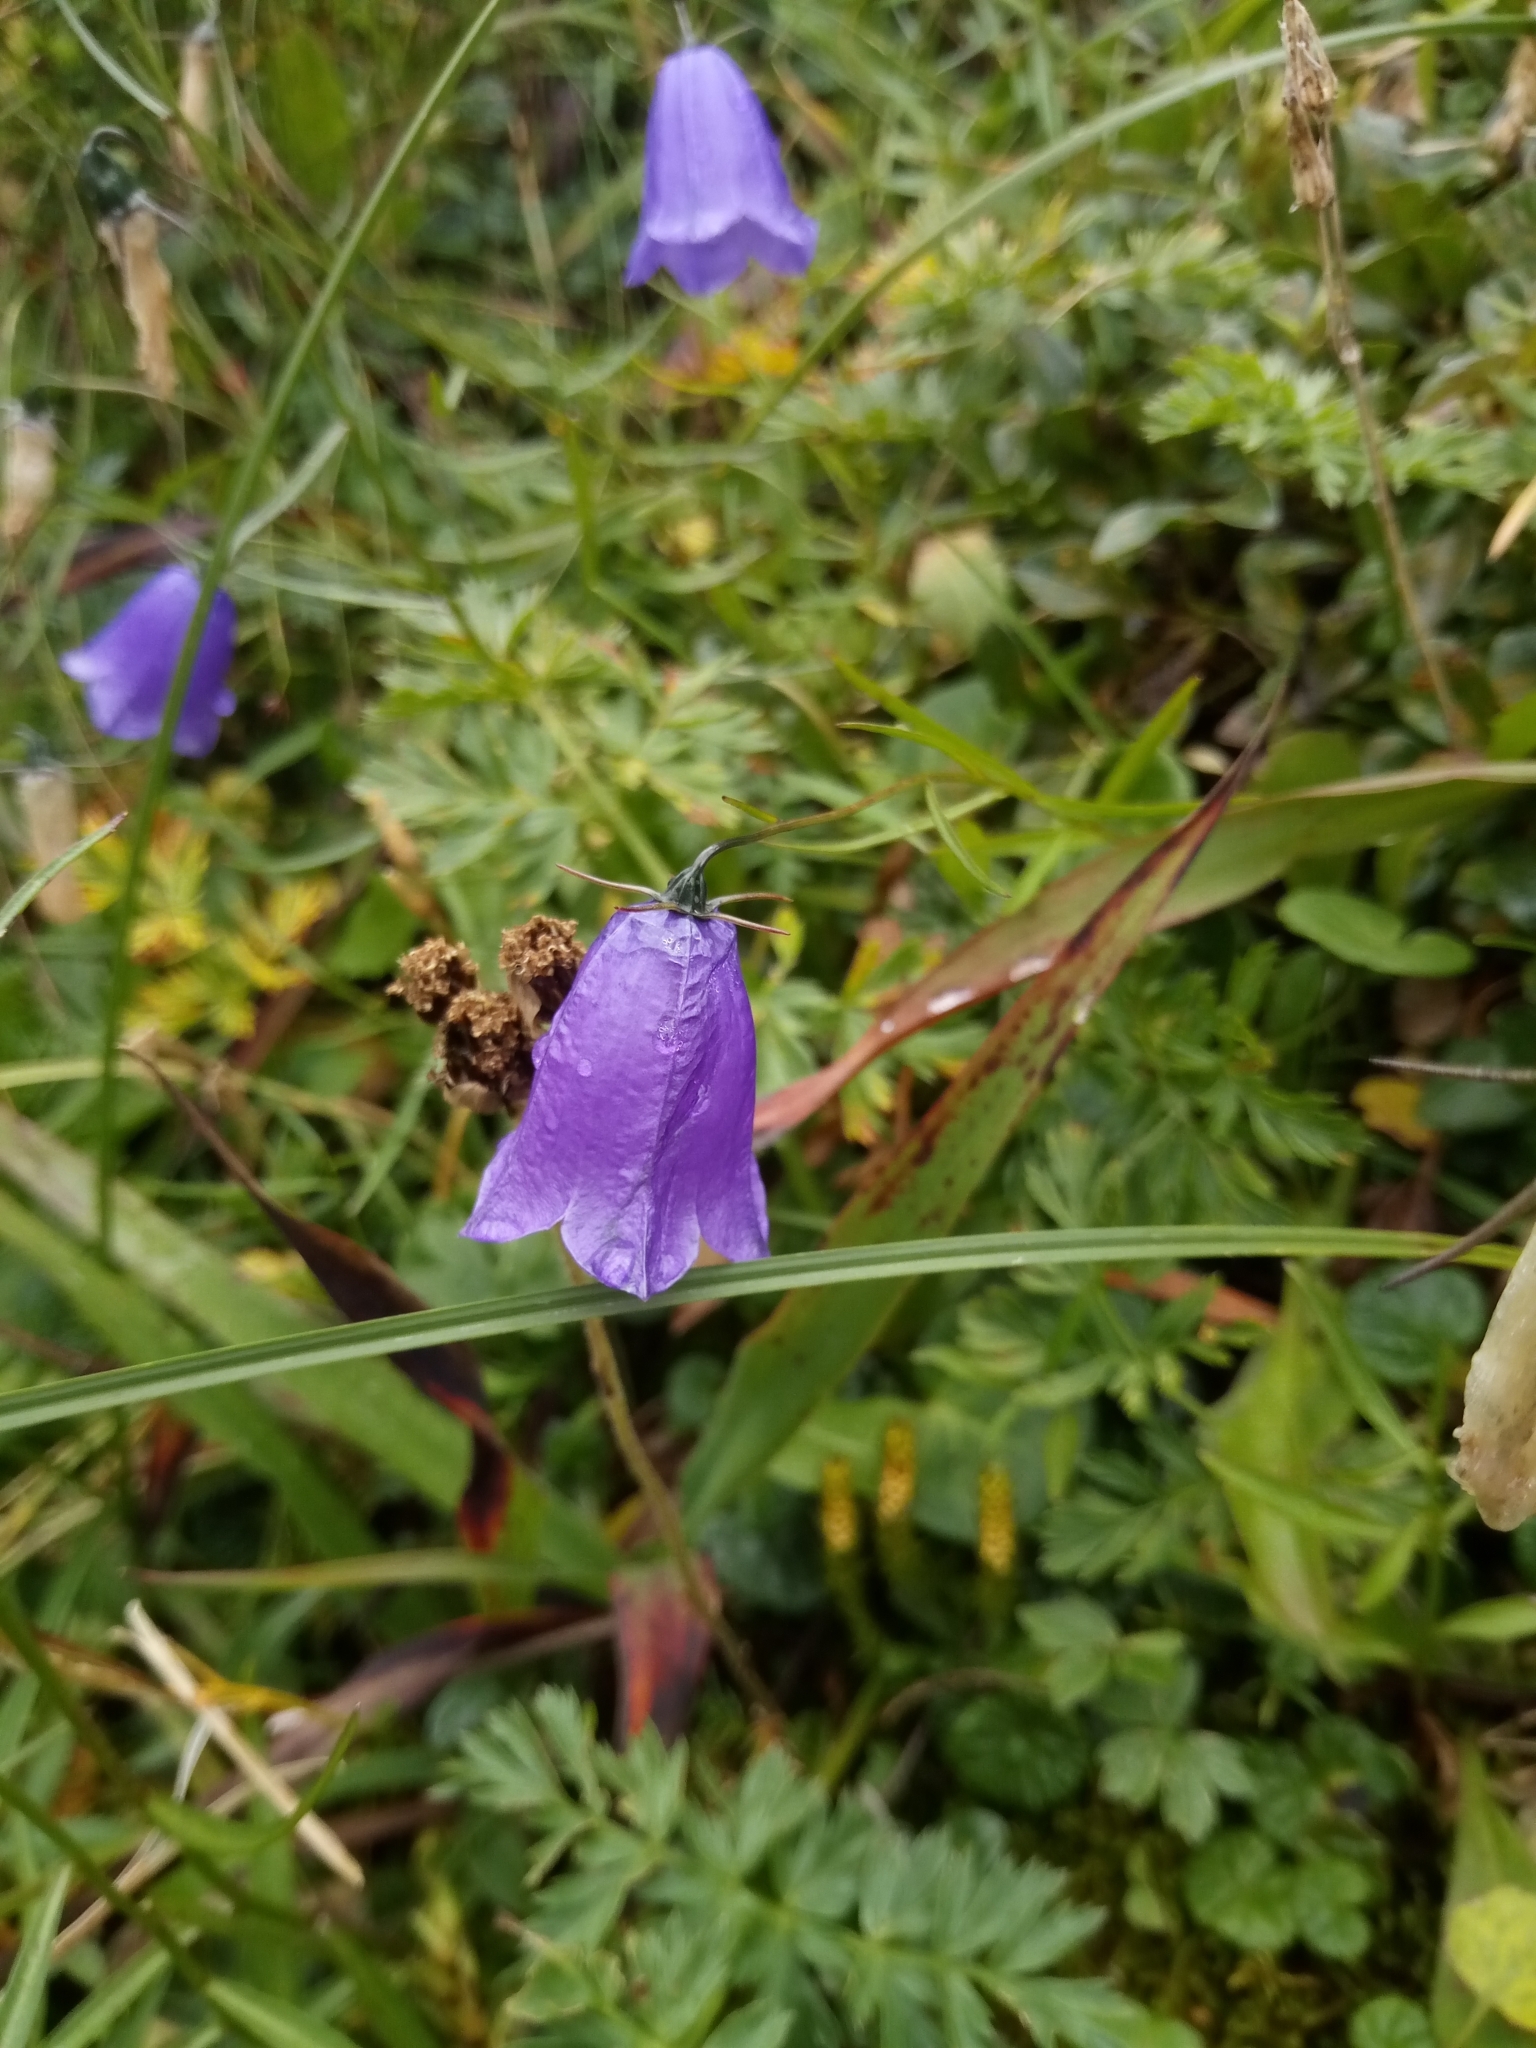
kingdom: Plantae
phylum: Tracheophyta
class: Magnoliopsida
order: Asterales
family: Campanulaceae
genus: Campanula
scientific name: Campanula scheuchzeri
